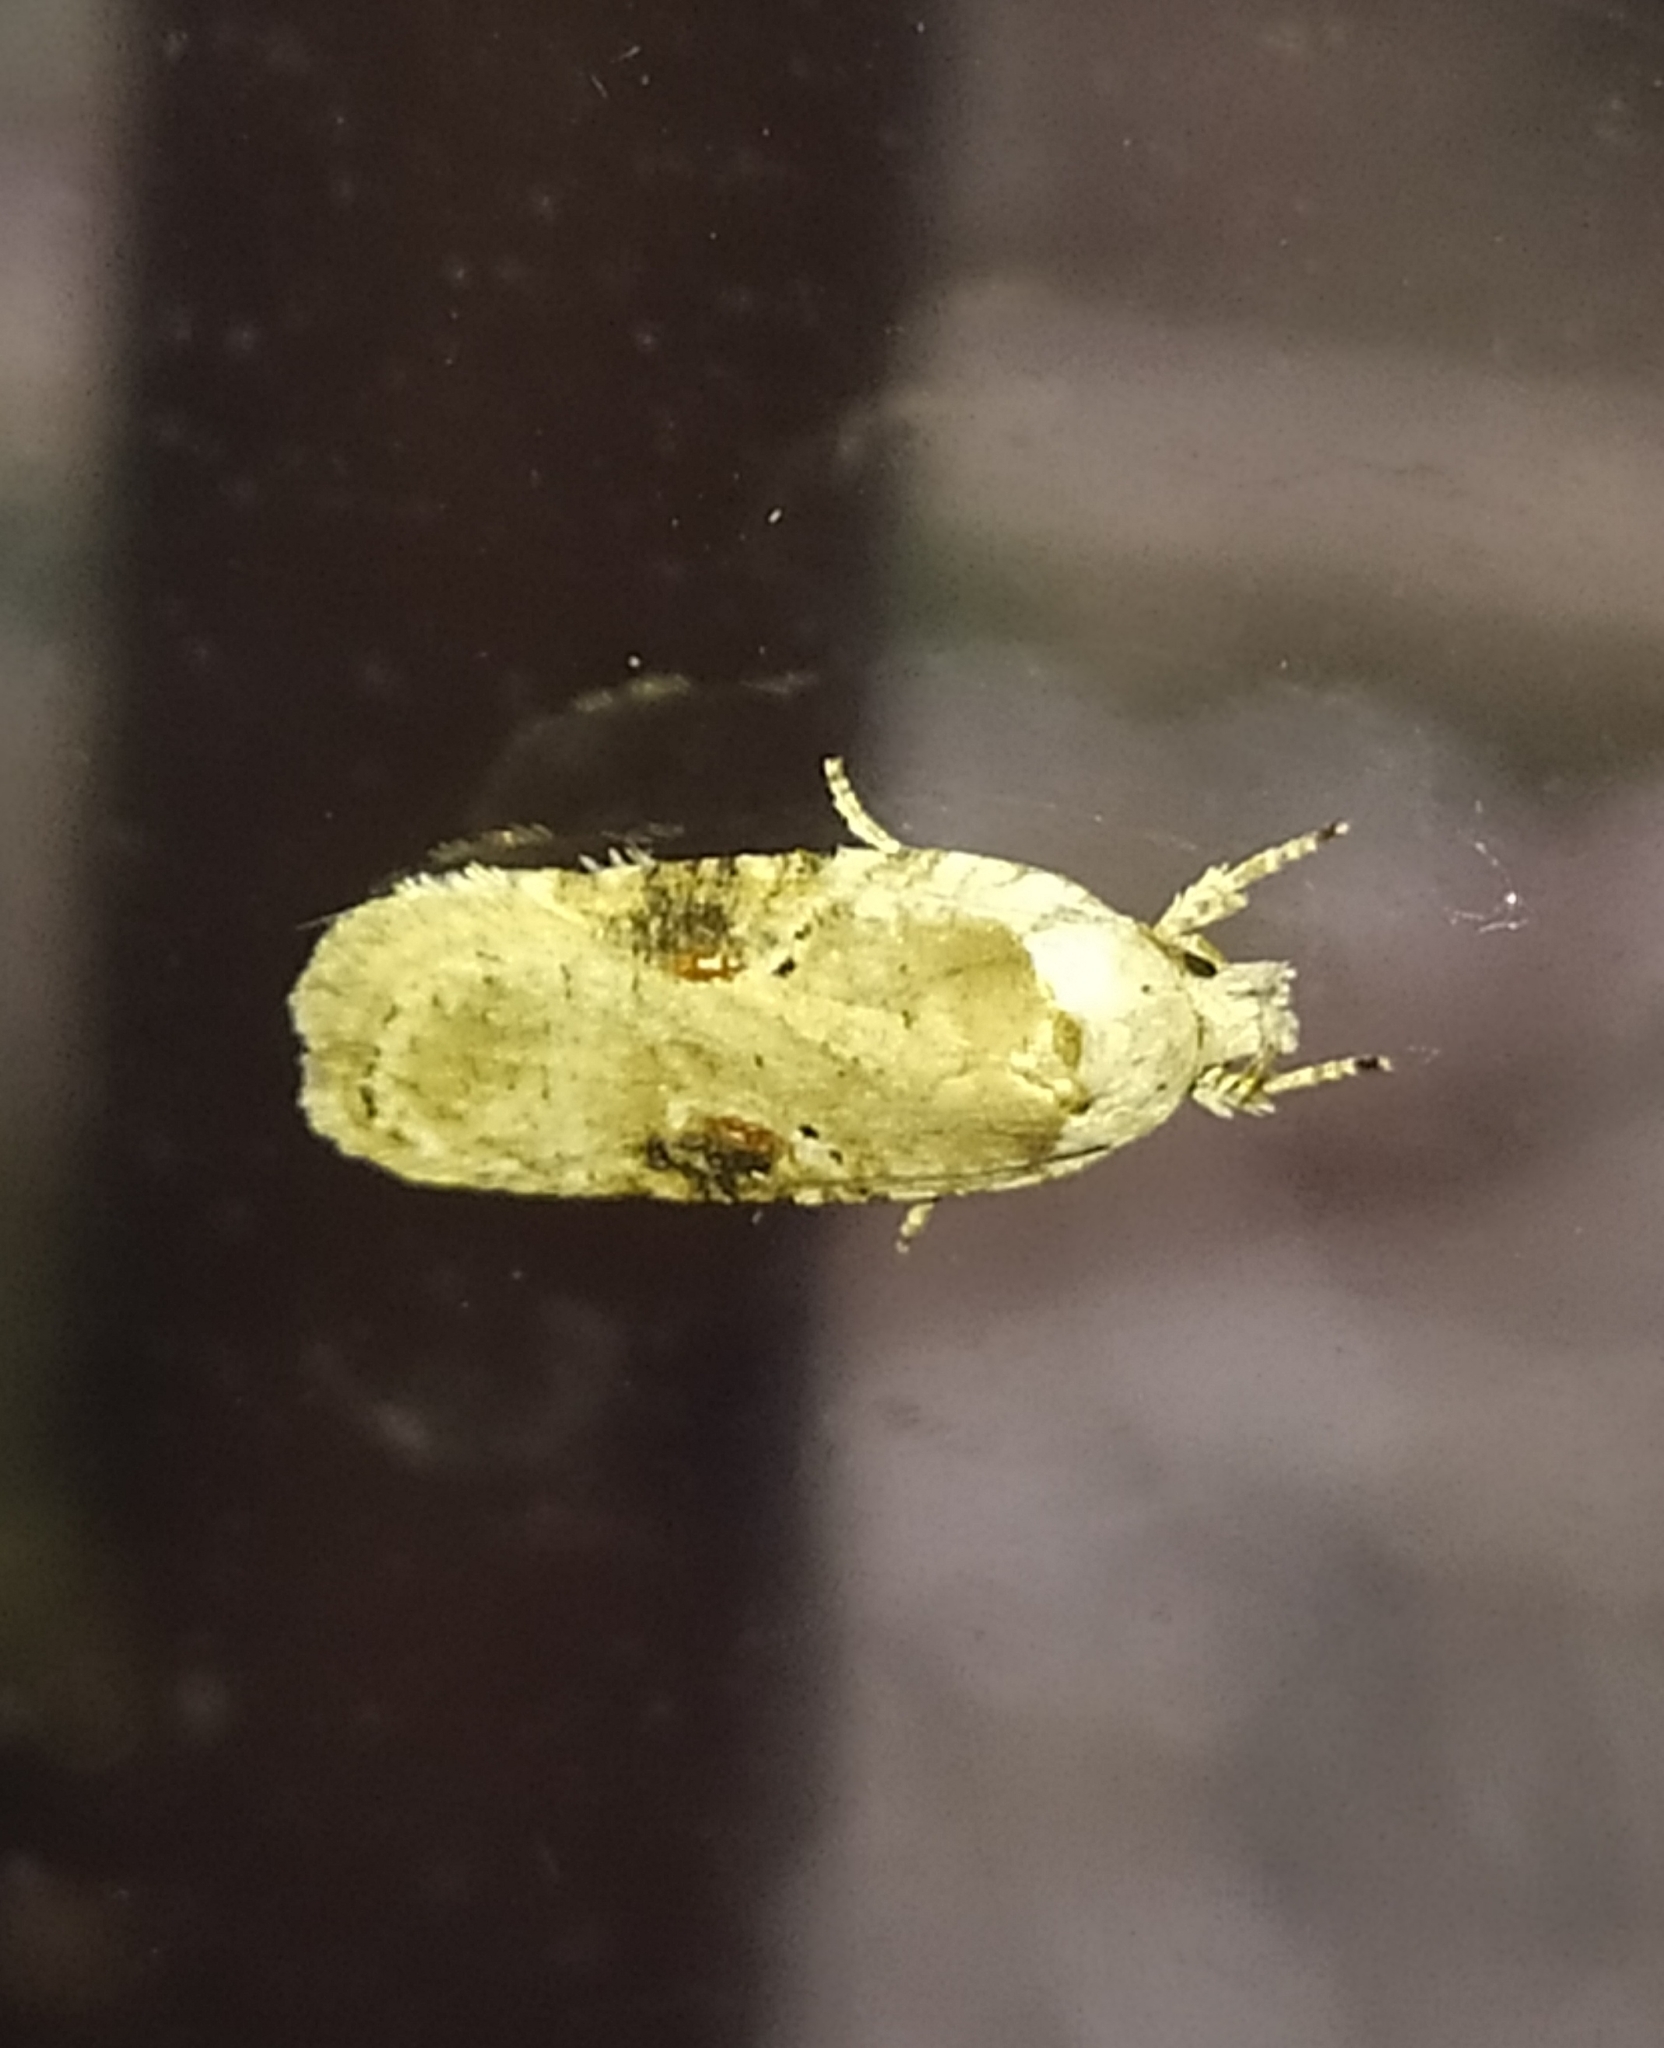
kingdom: Animalia
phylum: Arthropoda
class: Insecta
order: Lepidoptera
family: Depressariidae
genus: Agonopterix
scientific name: Agonopterix alstroemeriana
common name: Moth
